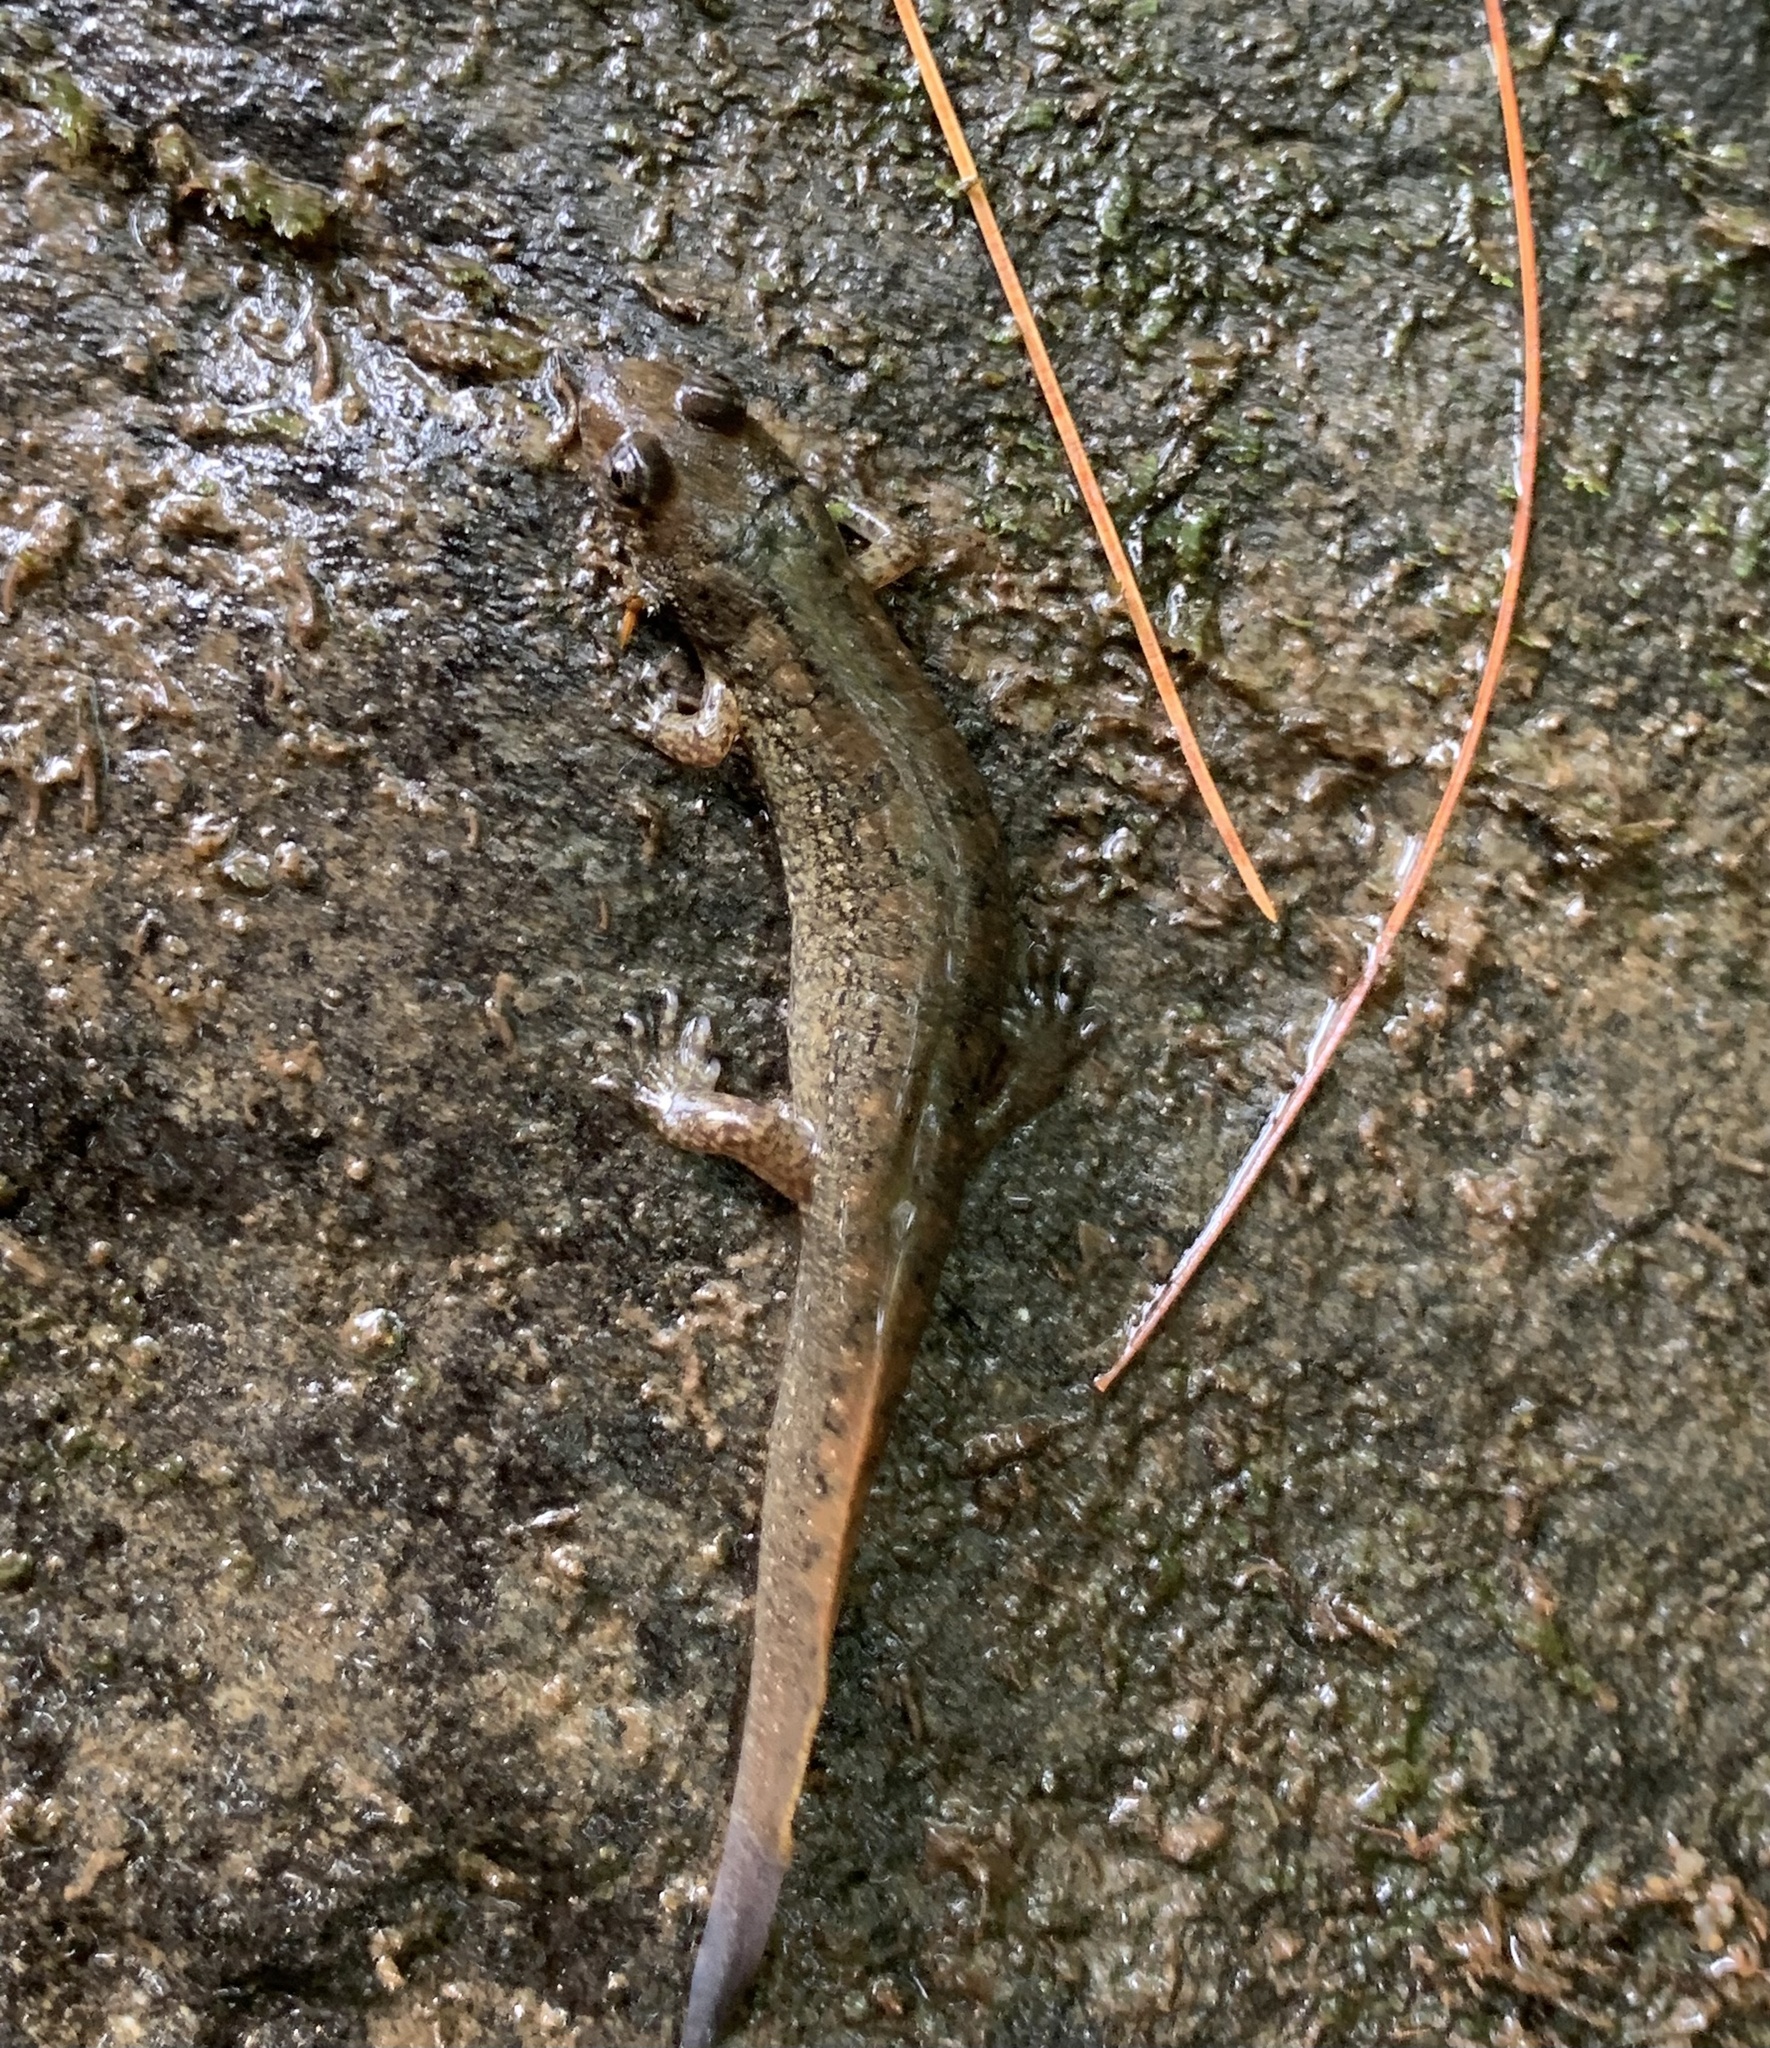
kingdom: Animalia
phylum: Chordata
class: Amphibia
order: Caudata
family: Plethodontidae
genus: Desmognathus
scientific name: Desmognathus
